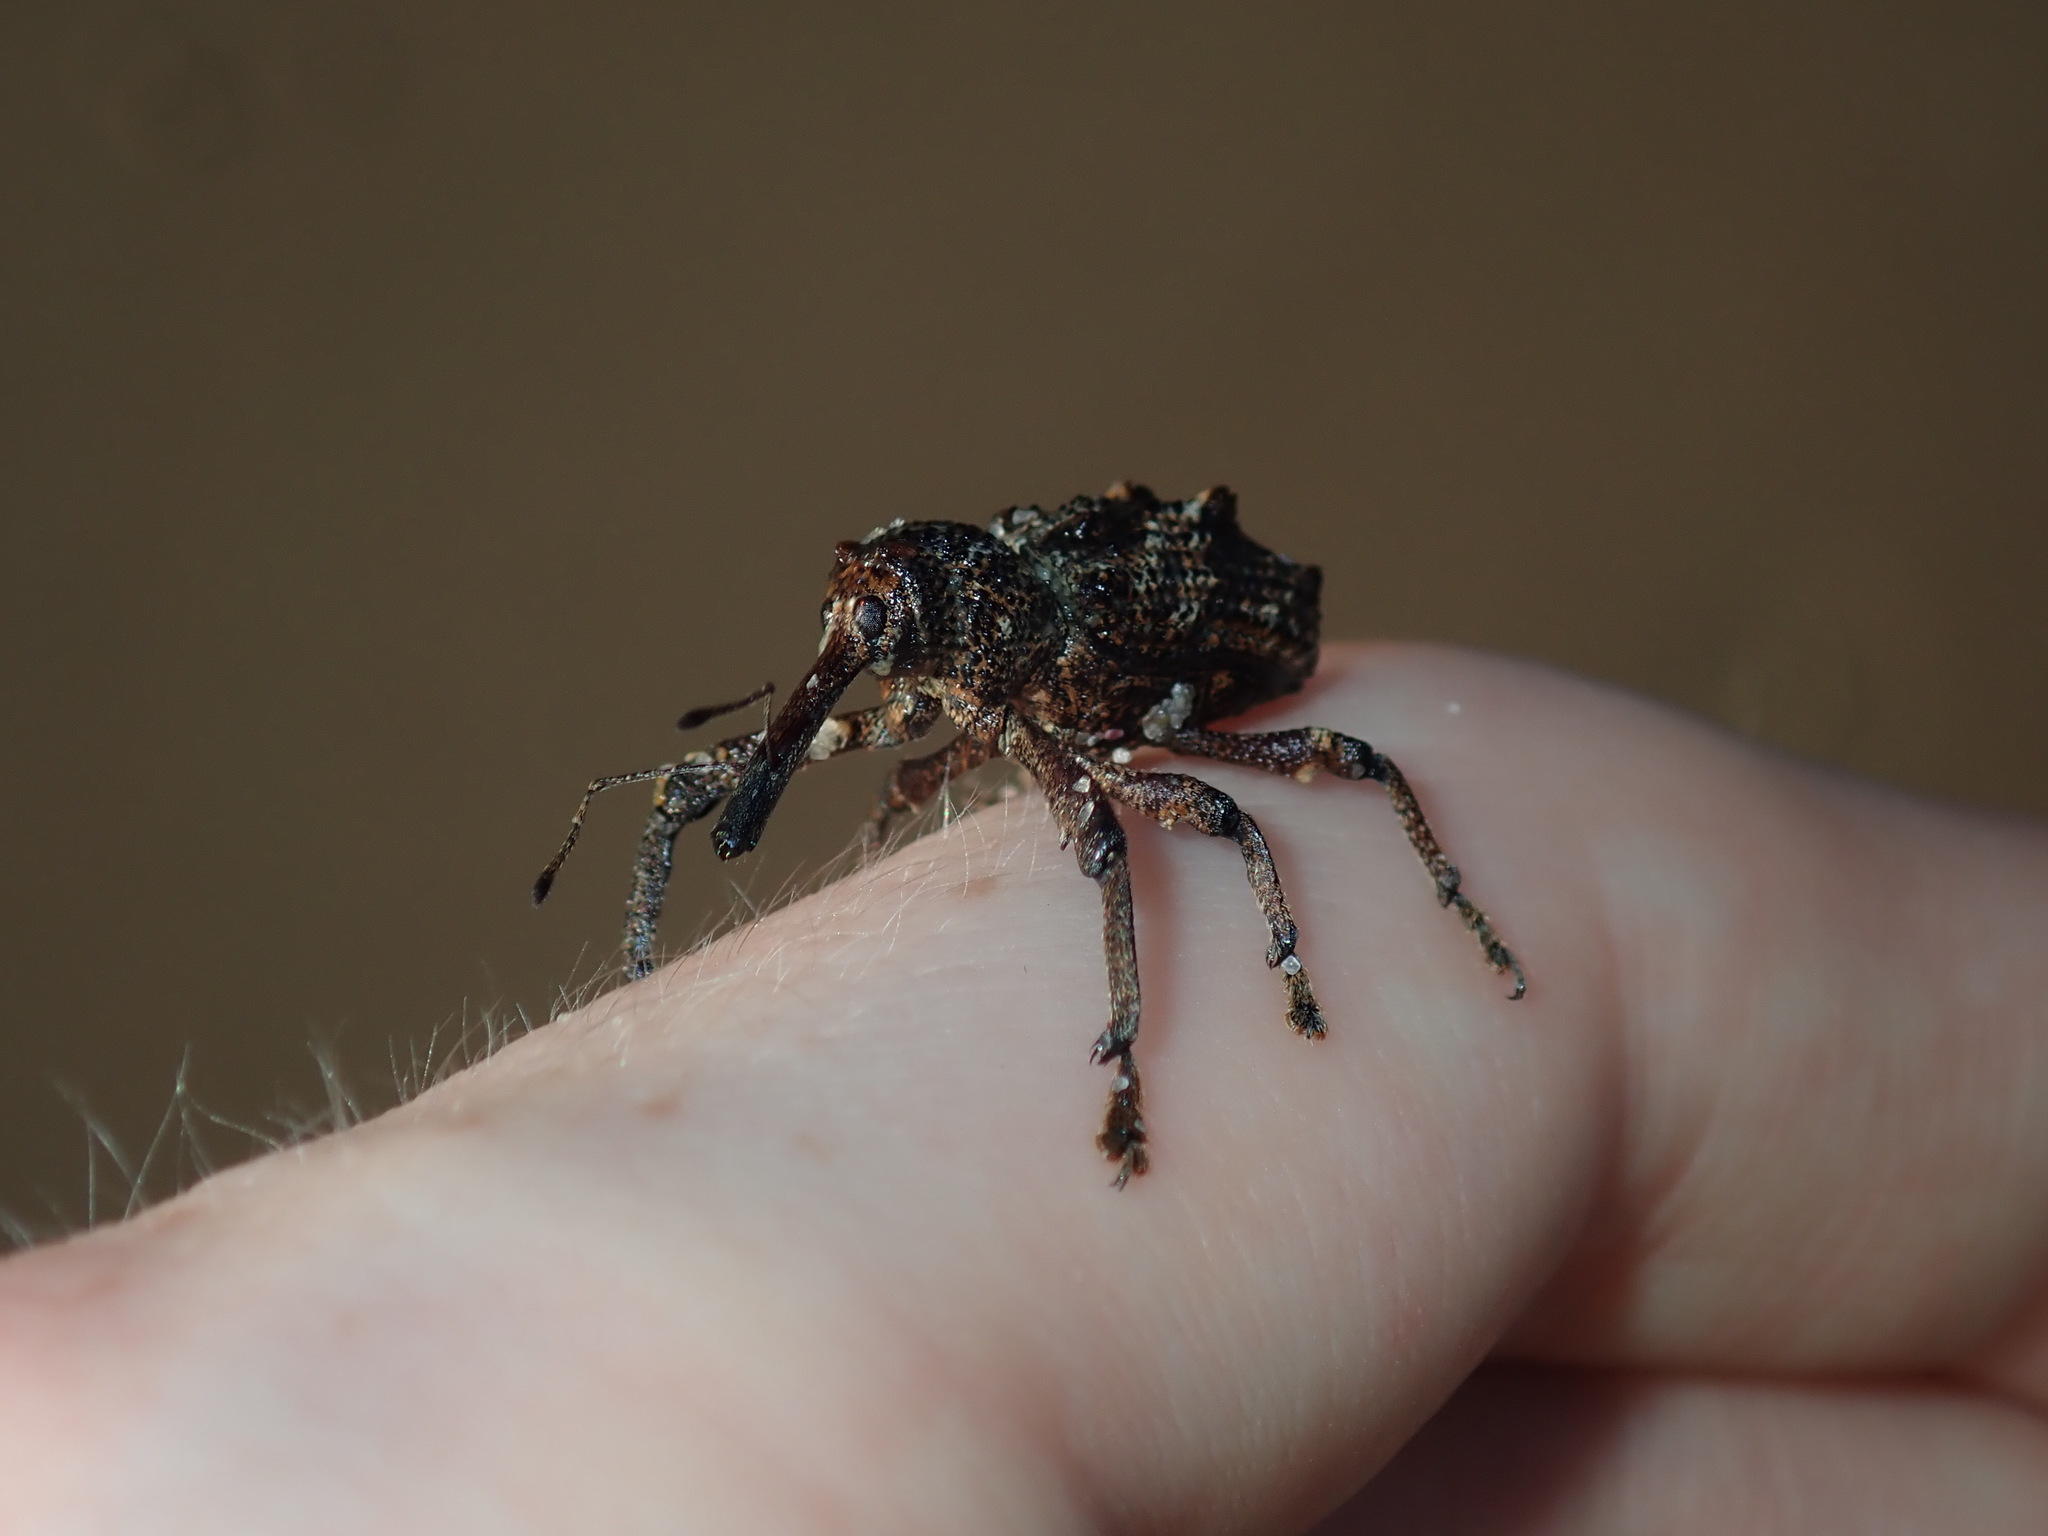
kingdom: Animalia
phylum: Arthropoda
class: Insecta
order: Coleoptera
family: Curculionidae
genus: Orthorhinus
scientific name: Orthorhinus cylindrirostris
